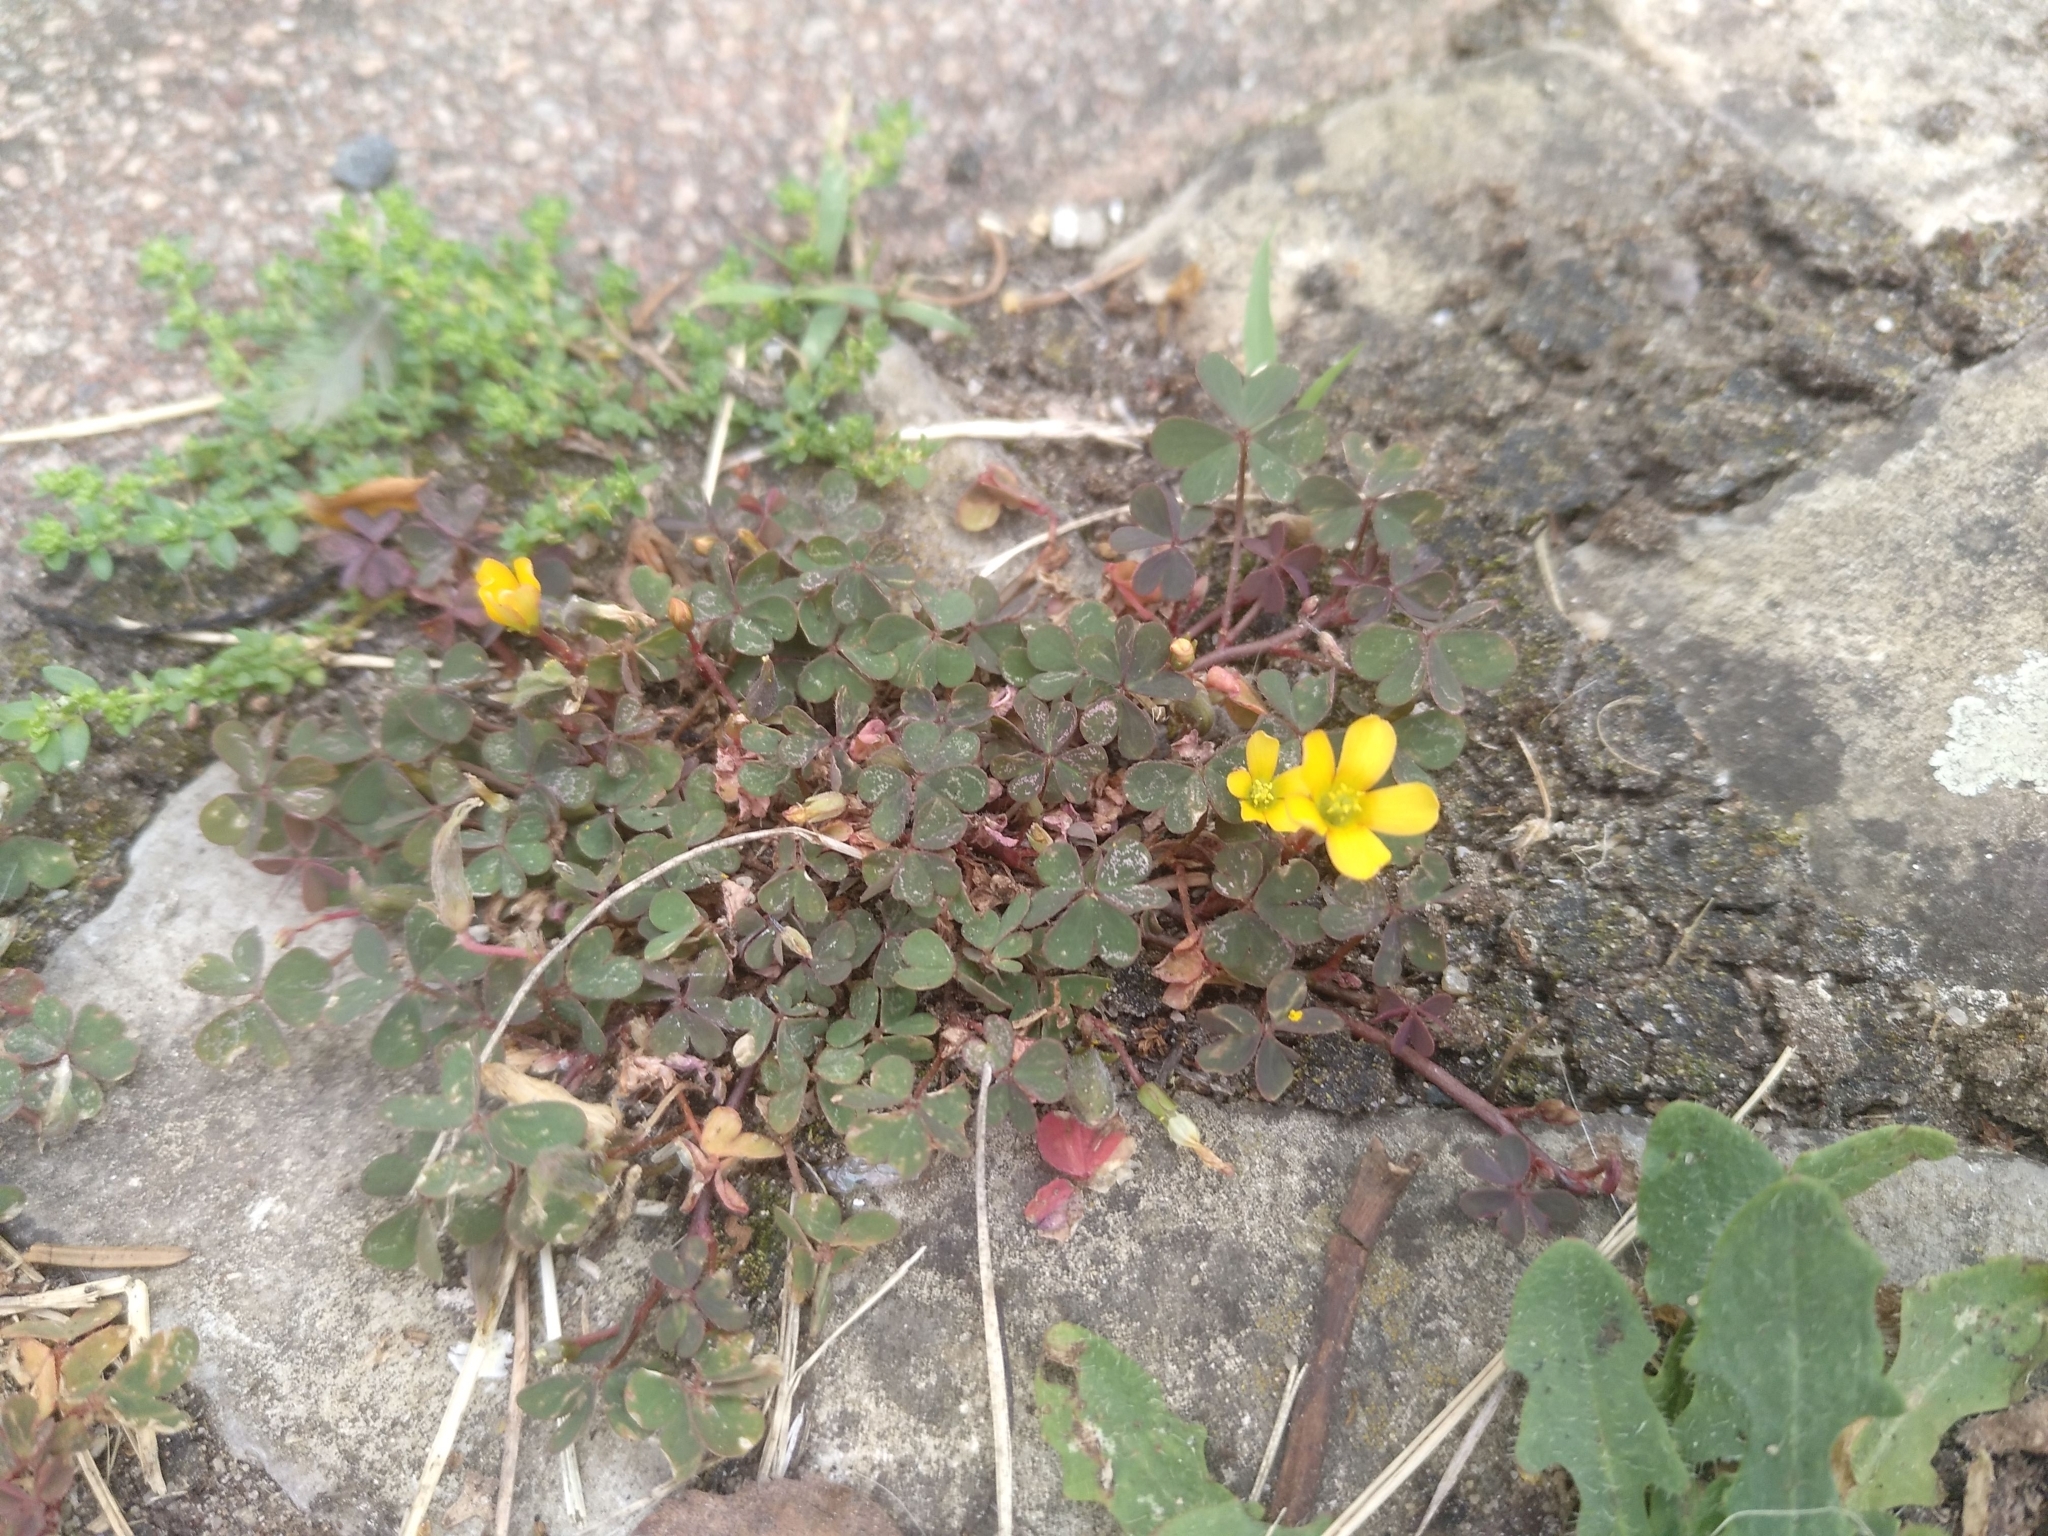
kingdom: Plantae
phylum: Tracheophyta
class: Magnoliopsida
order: Oxalidales
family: Oxalidaceae
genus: Oxalis
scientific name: Oxalis corniculata
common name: Procumbent yellow-sorrel
